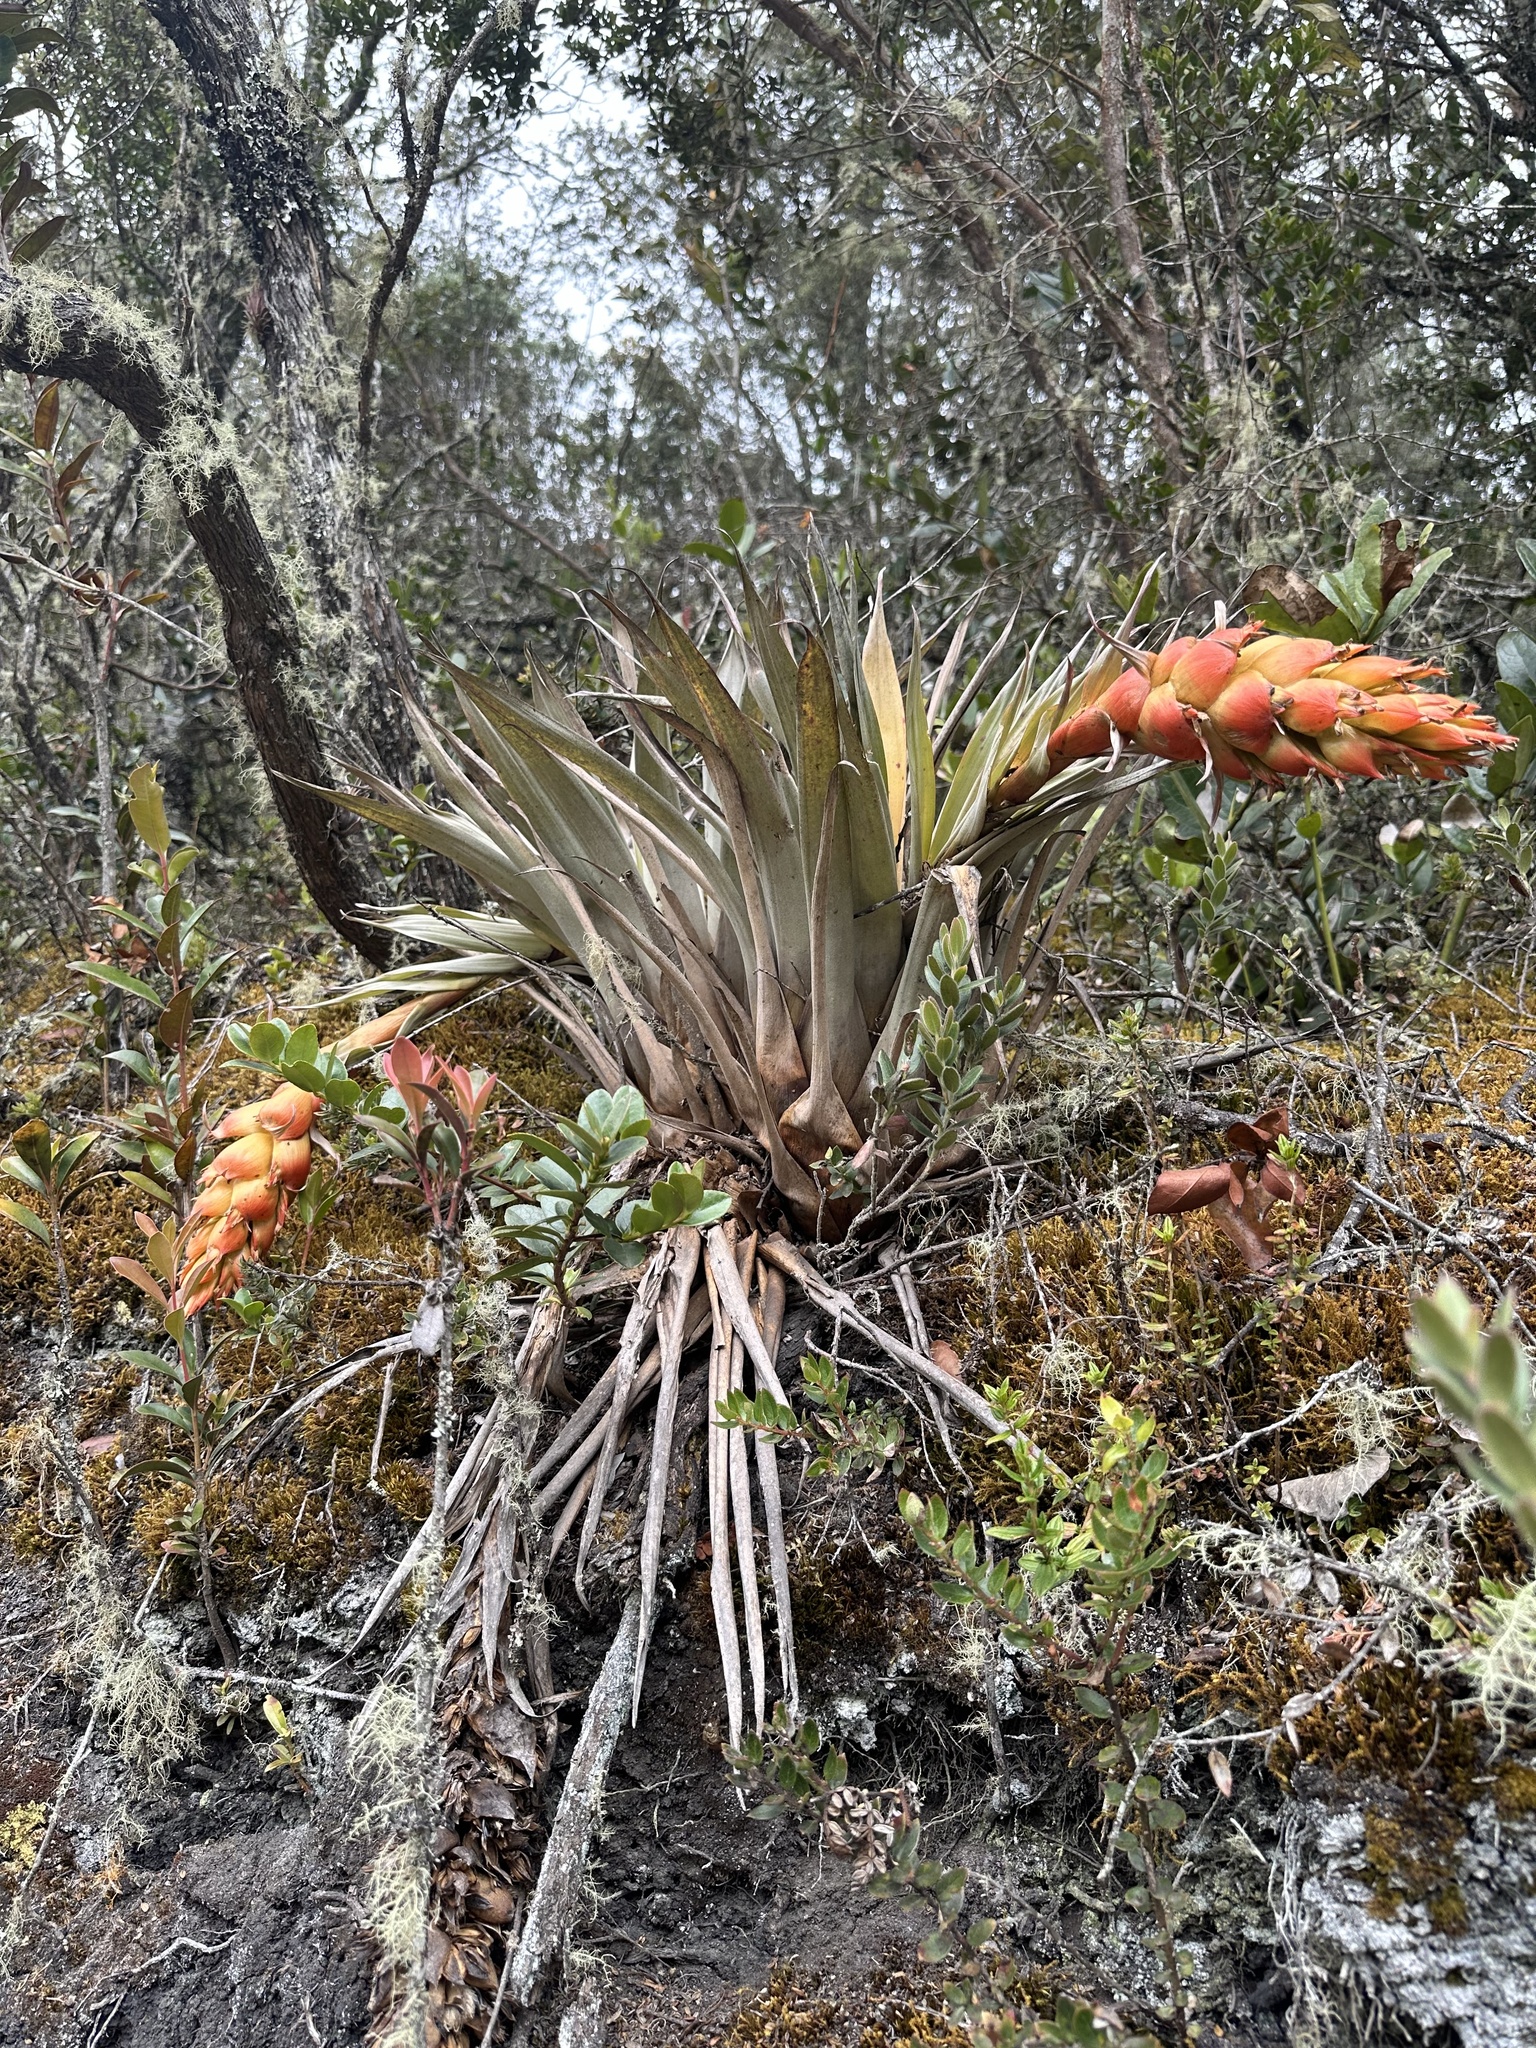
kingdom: Plantae
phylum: Tracheophyta
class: Liliopsida
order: Poales
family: Bromeliaceae
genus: Tillandsia
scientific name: Tillandsia turneri
